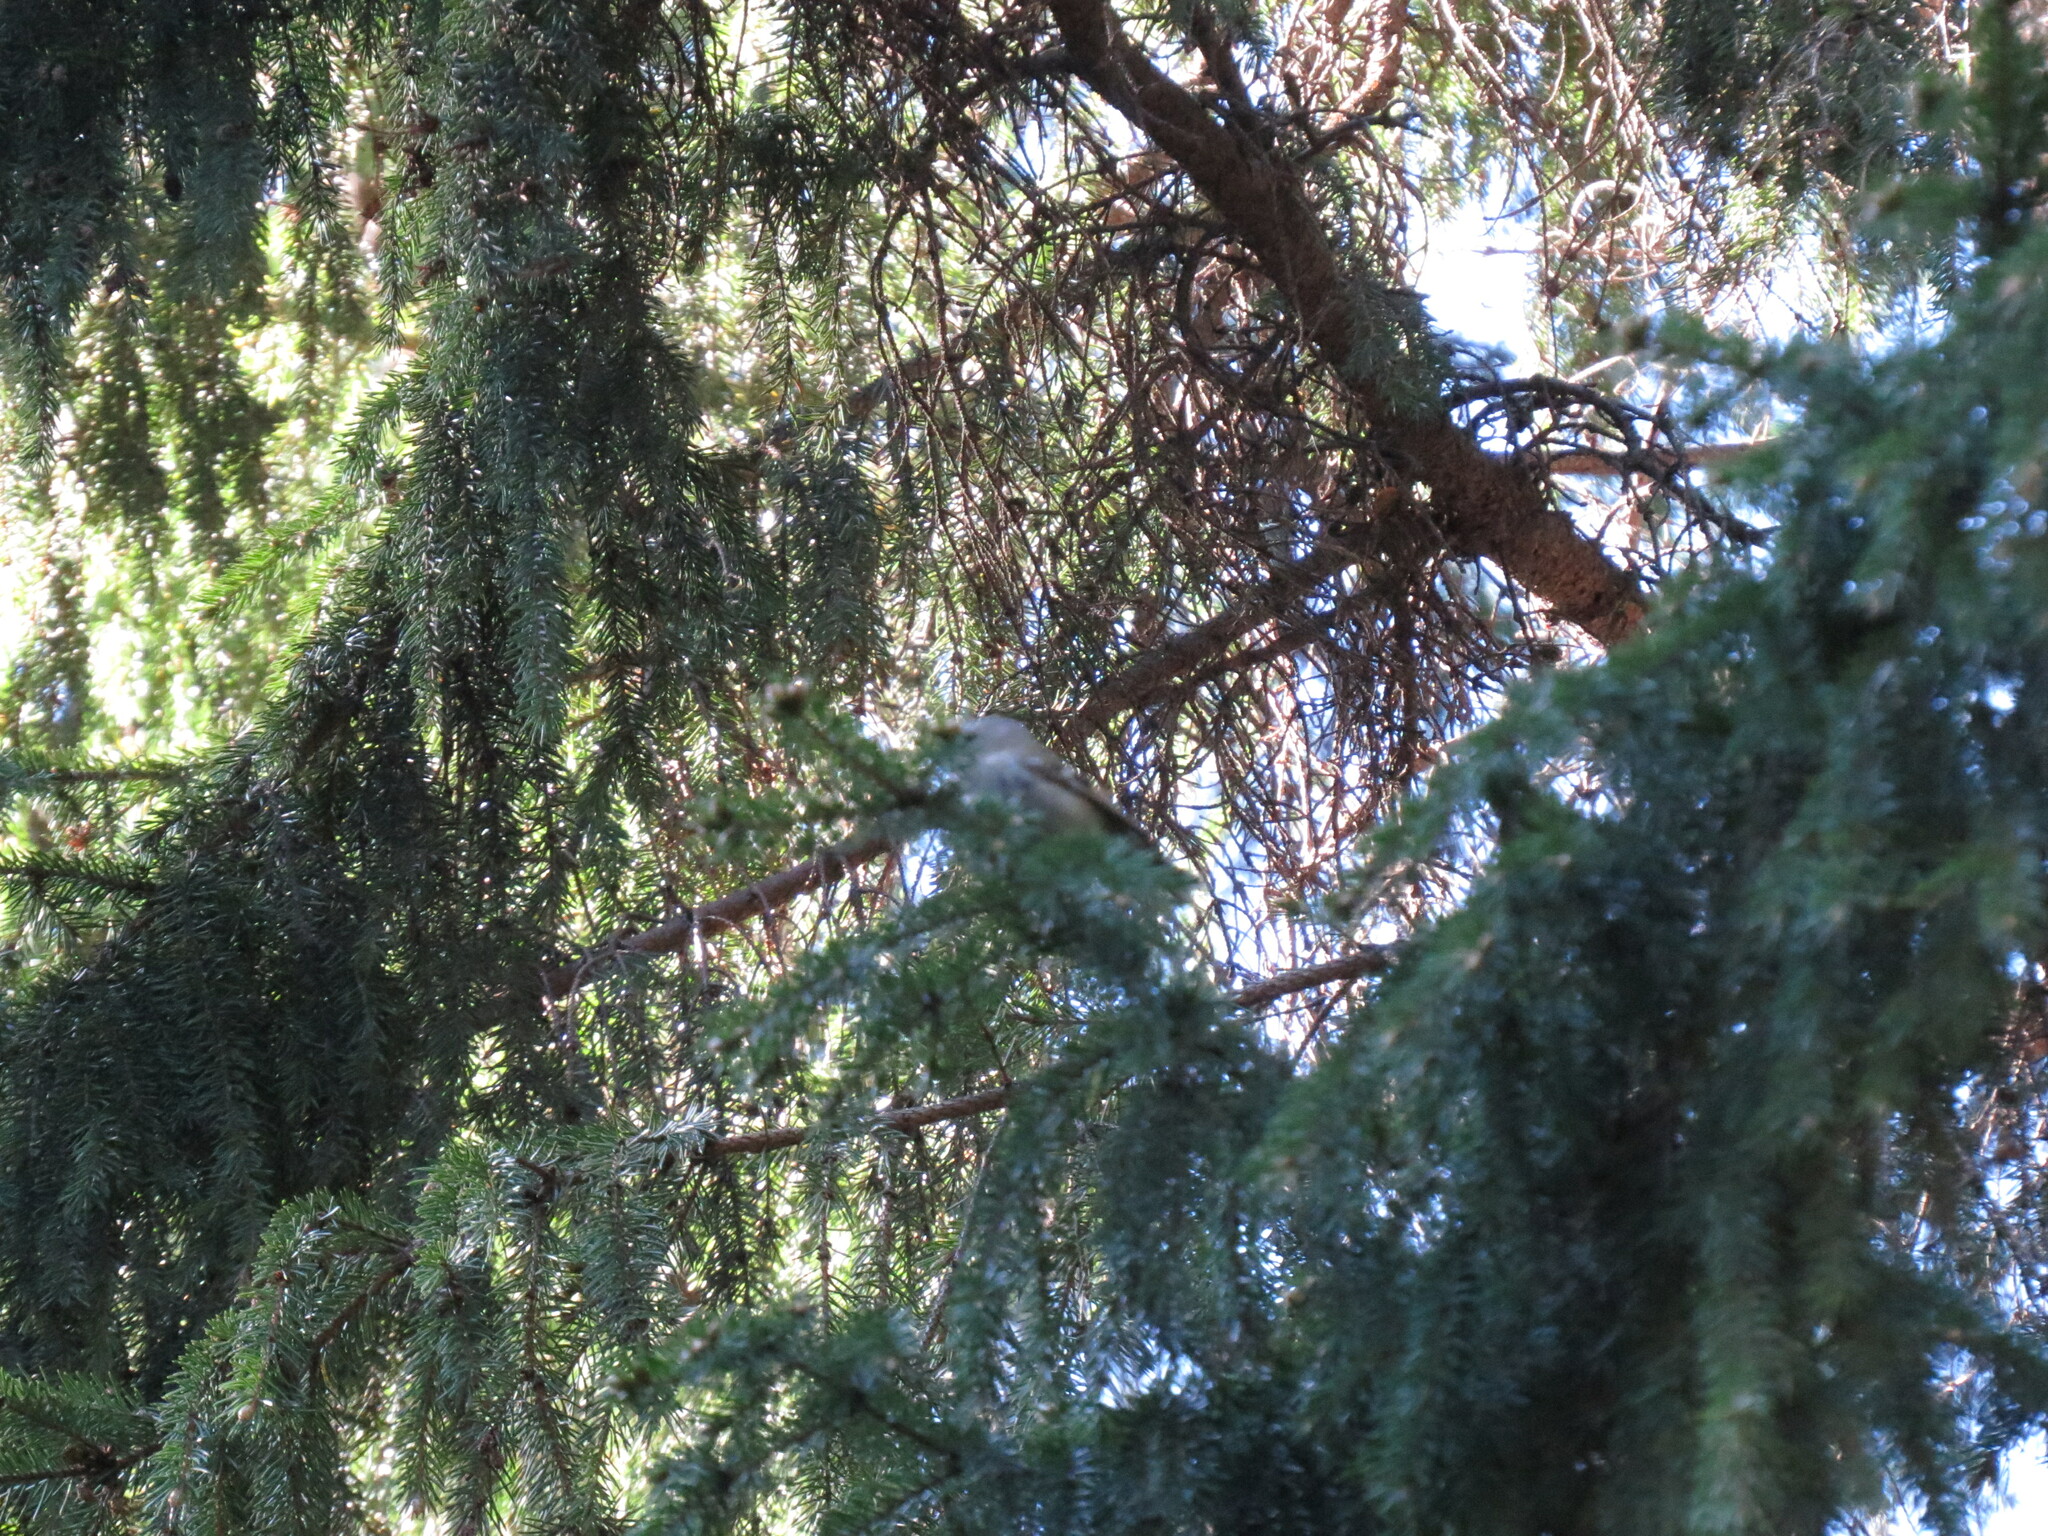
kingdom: Animalia
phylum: Chordata
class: Aves
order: Passeriformes
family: Regulidae
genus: Regulus
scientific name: Regulus regulus
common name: Goldcrest
